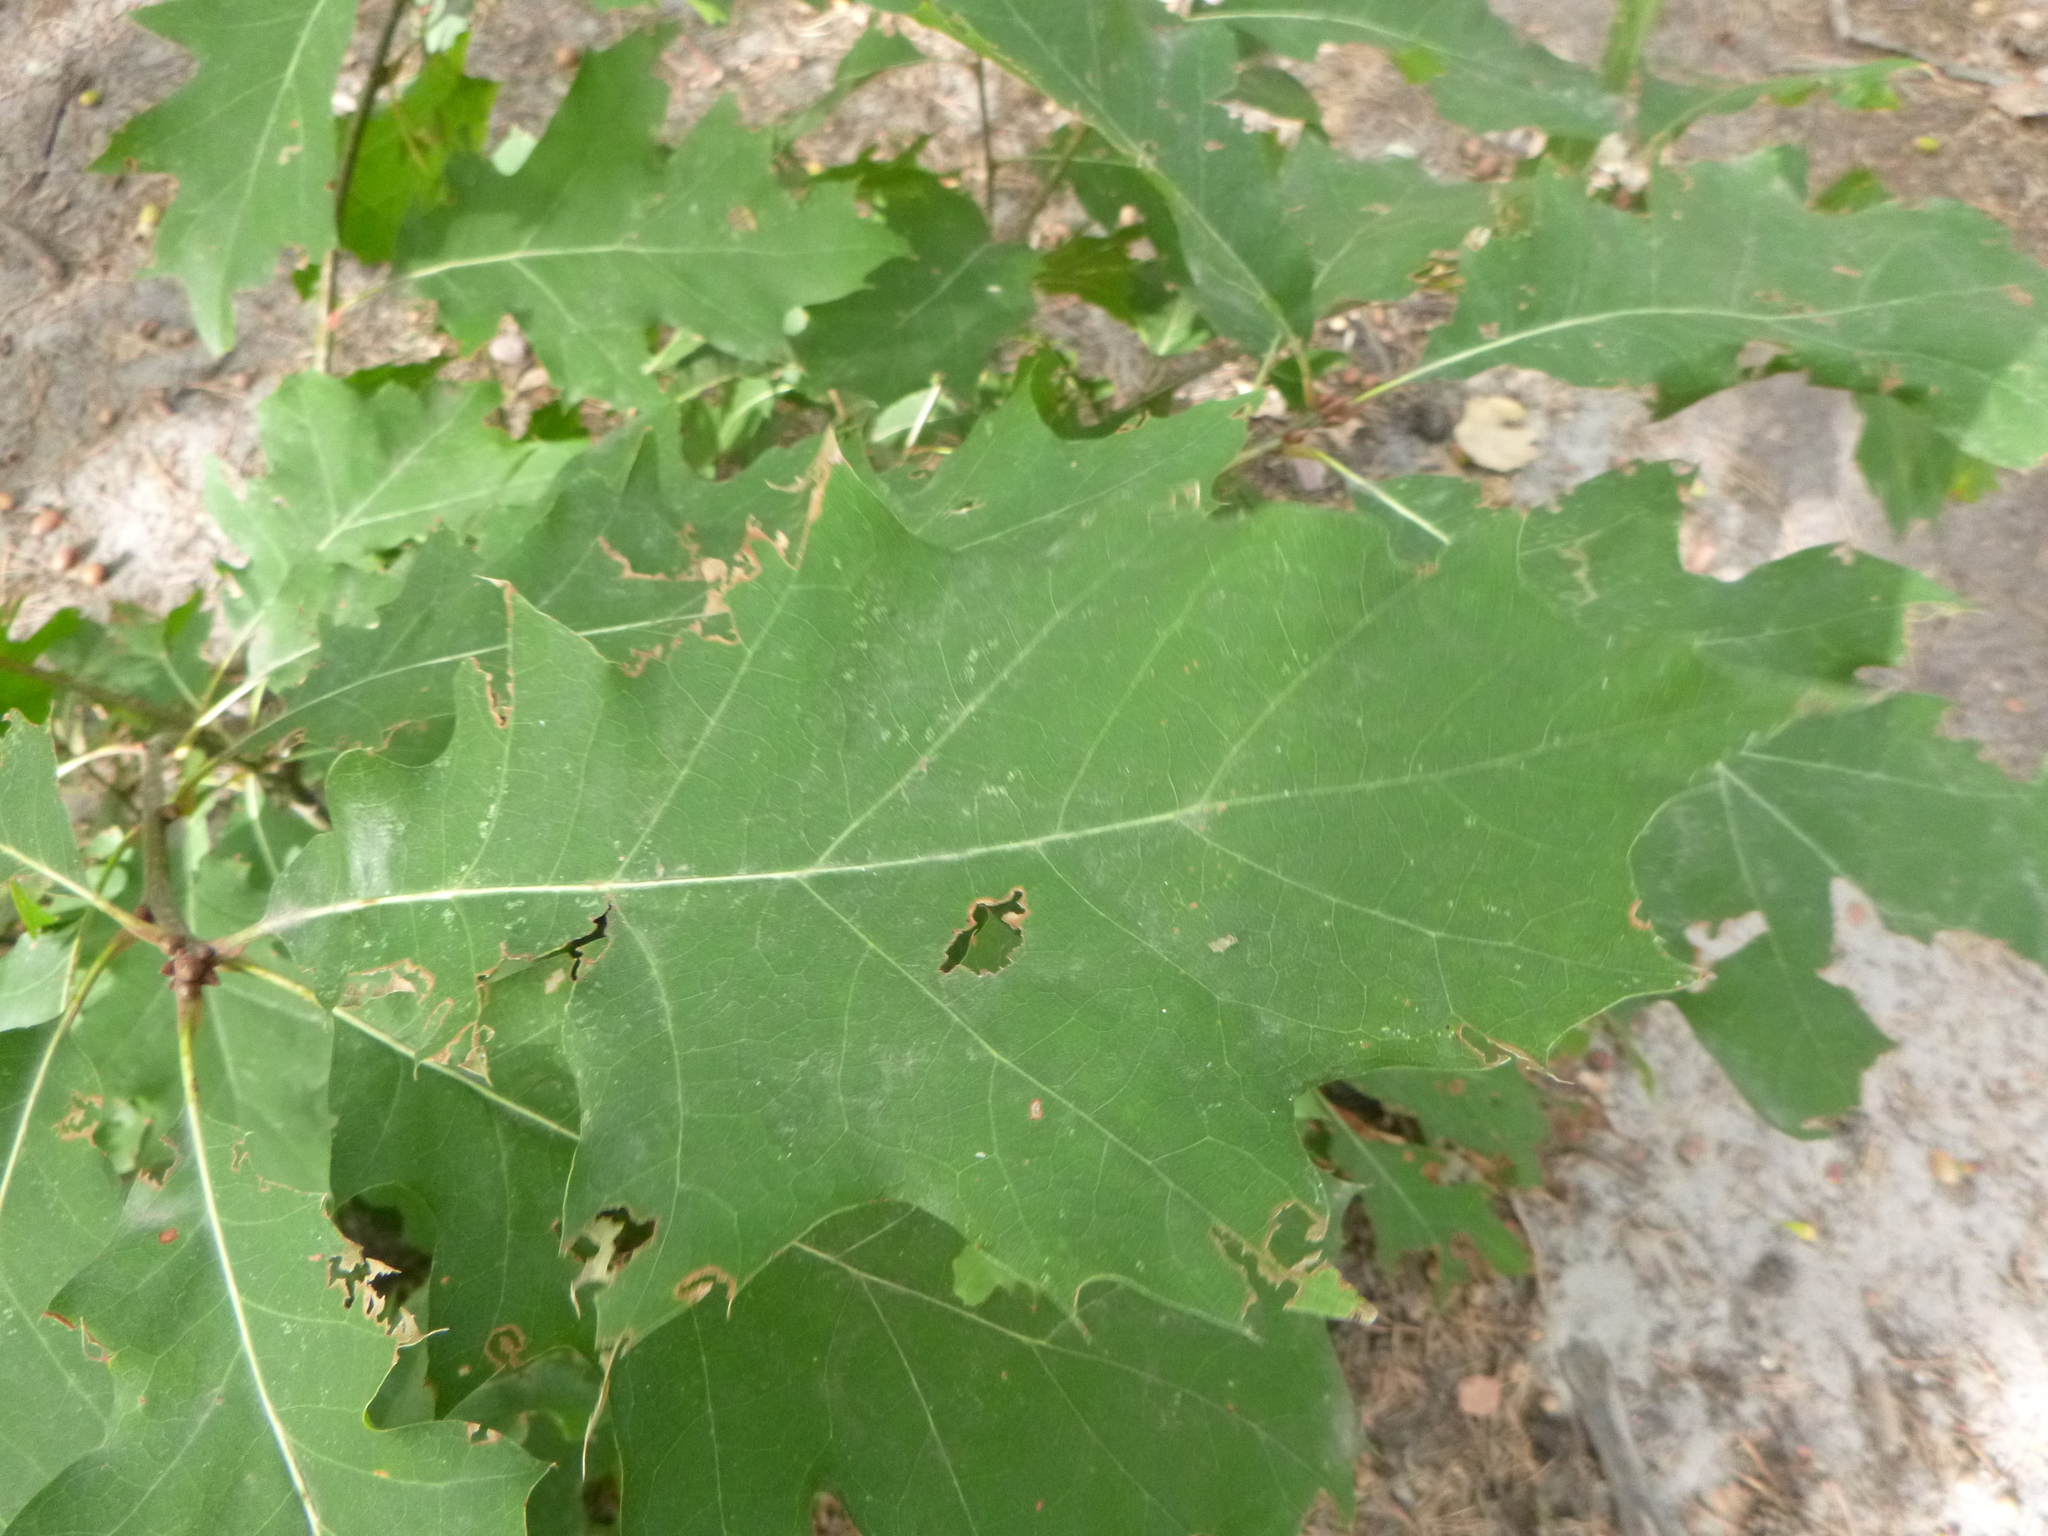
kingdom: Plantae
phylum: Tracheophyta
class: Magnoliopsida
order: Fagales
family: Fagaceae
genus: Quercus
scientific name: Quercus rubra
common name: Red oak
